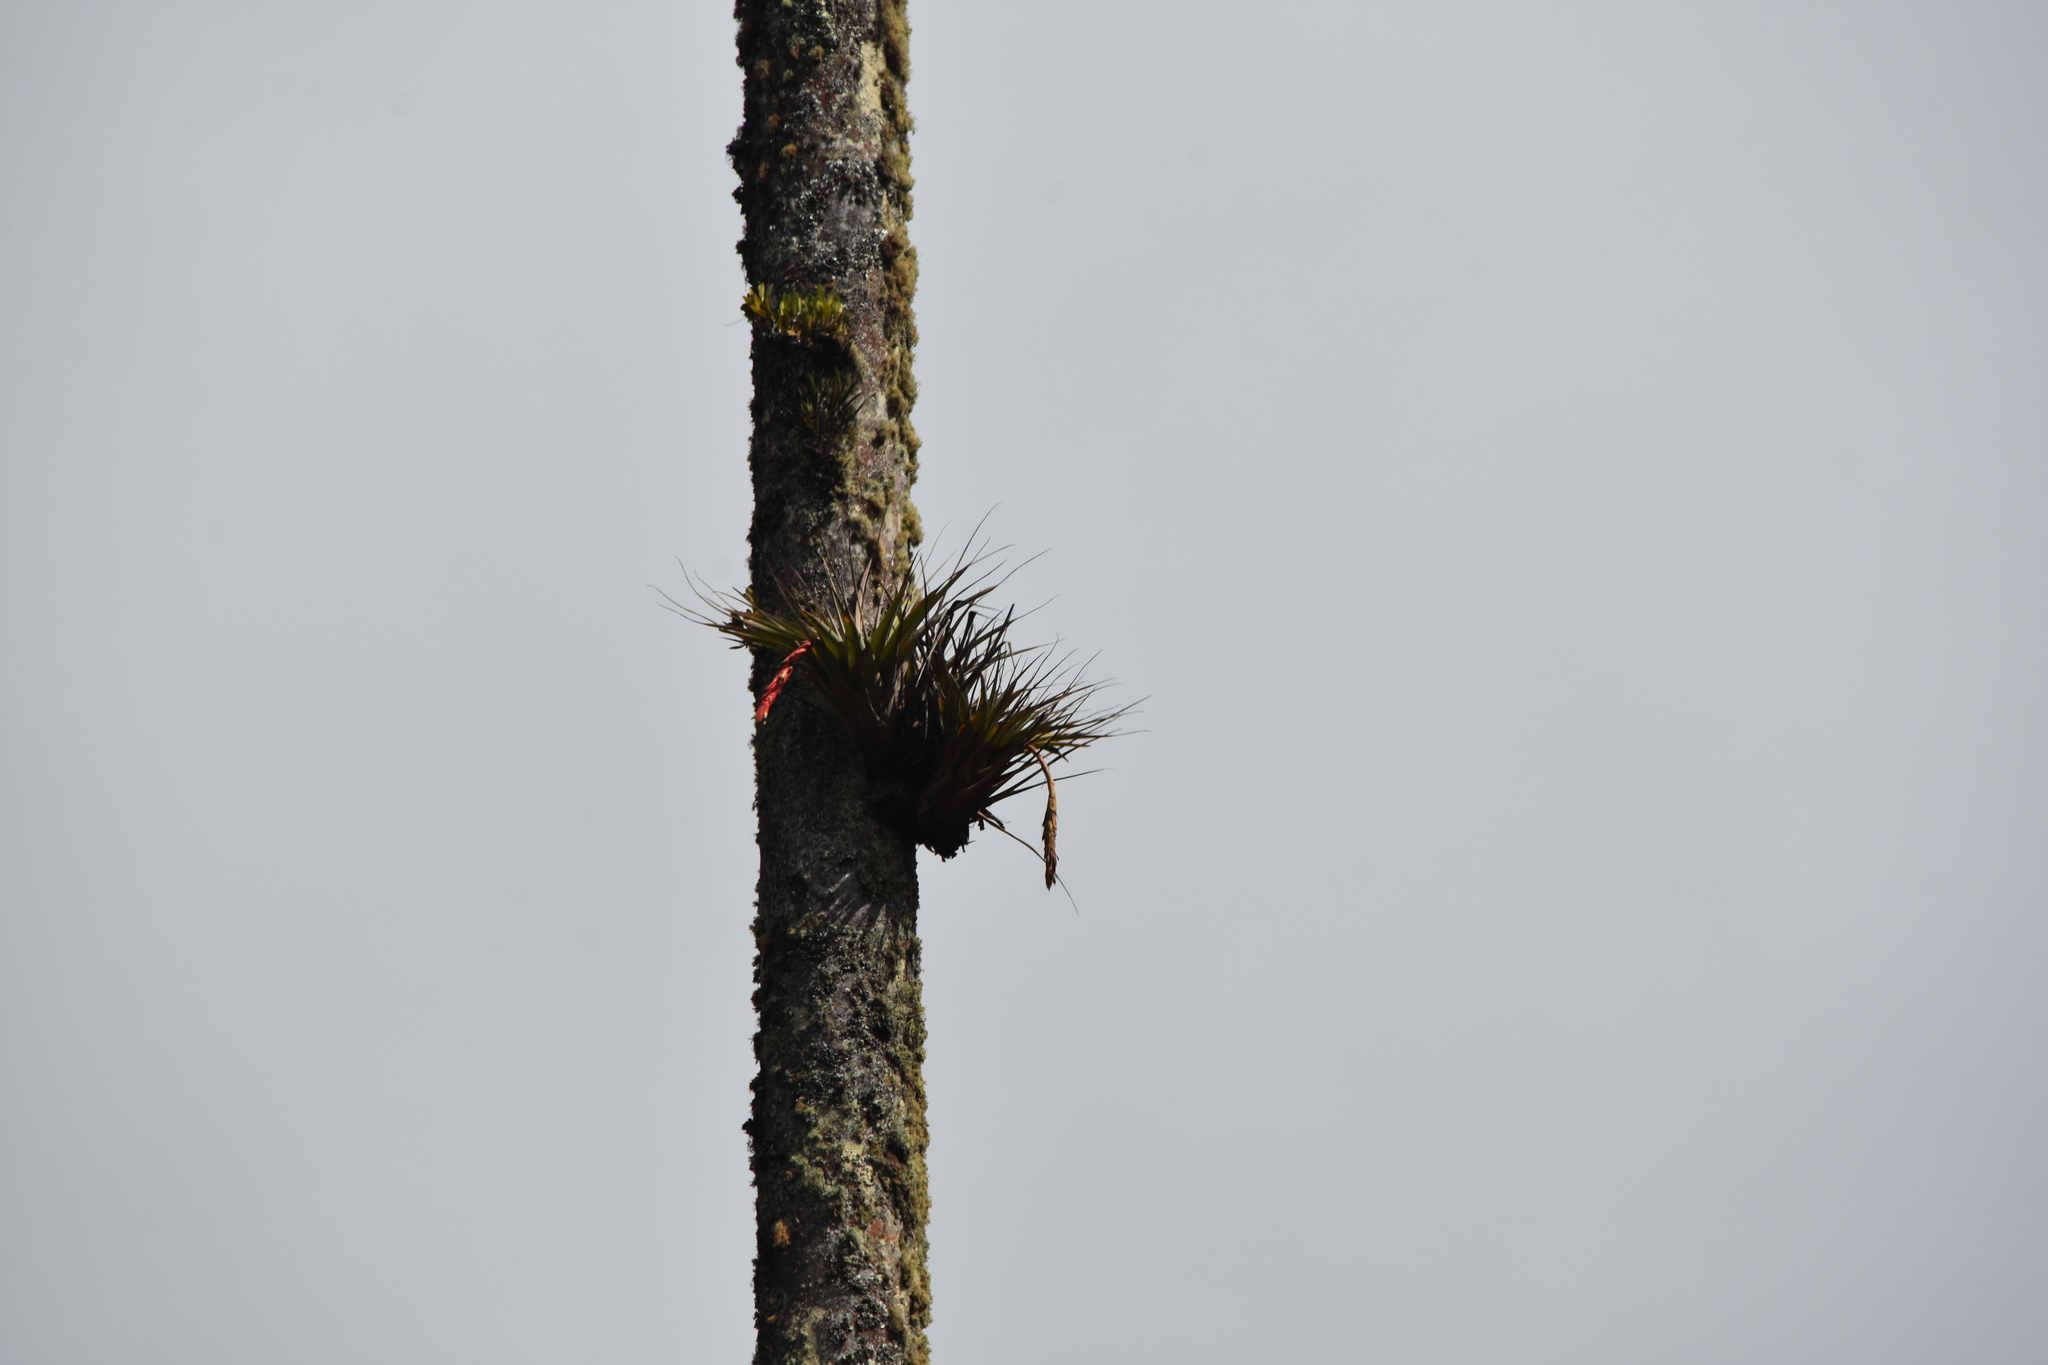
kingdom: Plantae
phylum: Tracheophyta
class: Liliopsida
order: Poales
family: Bromeliaceae
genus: Vriesea
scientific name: Vriesea tequendamae
